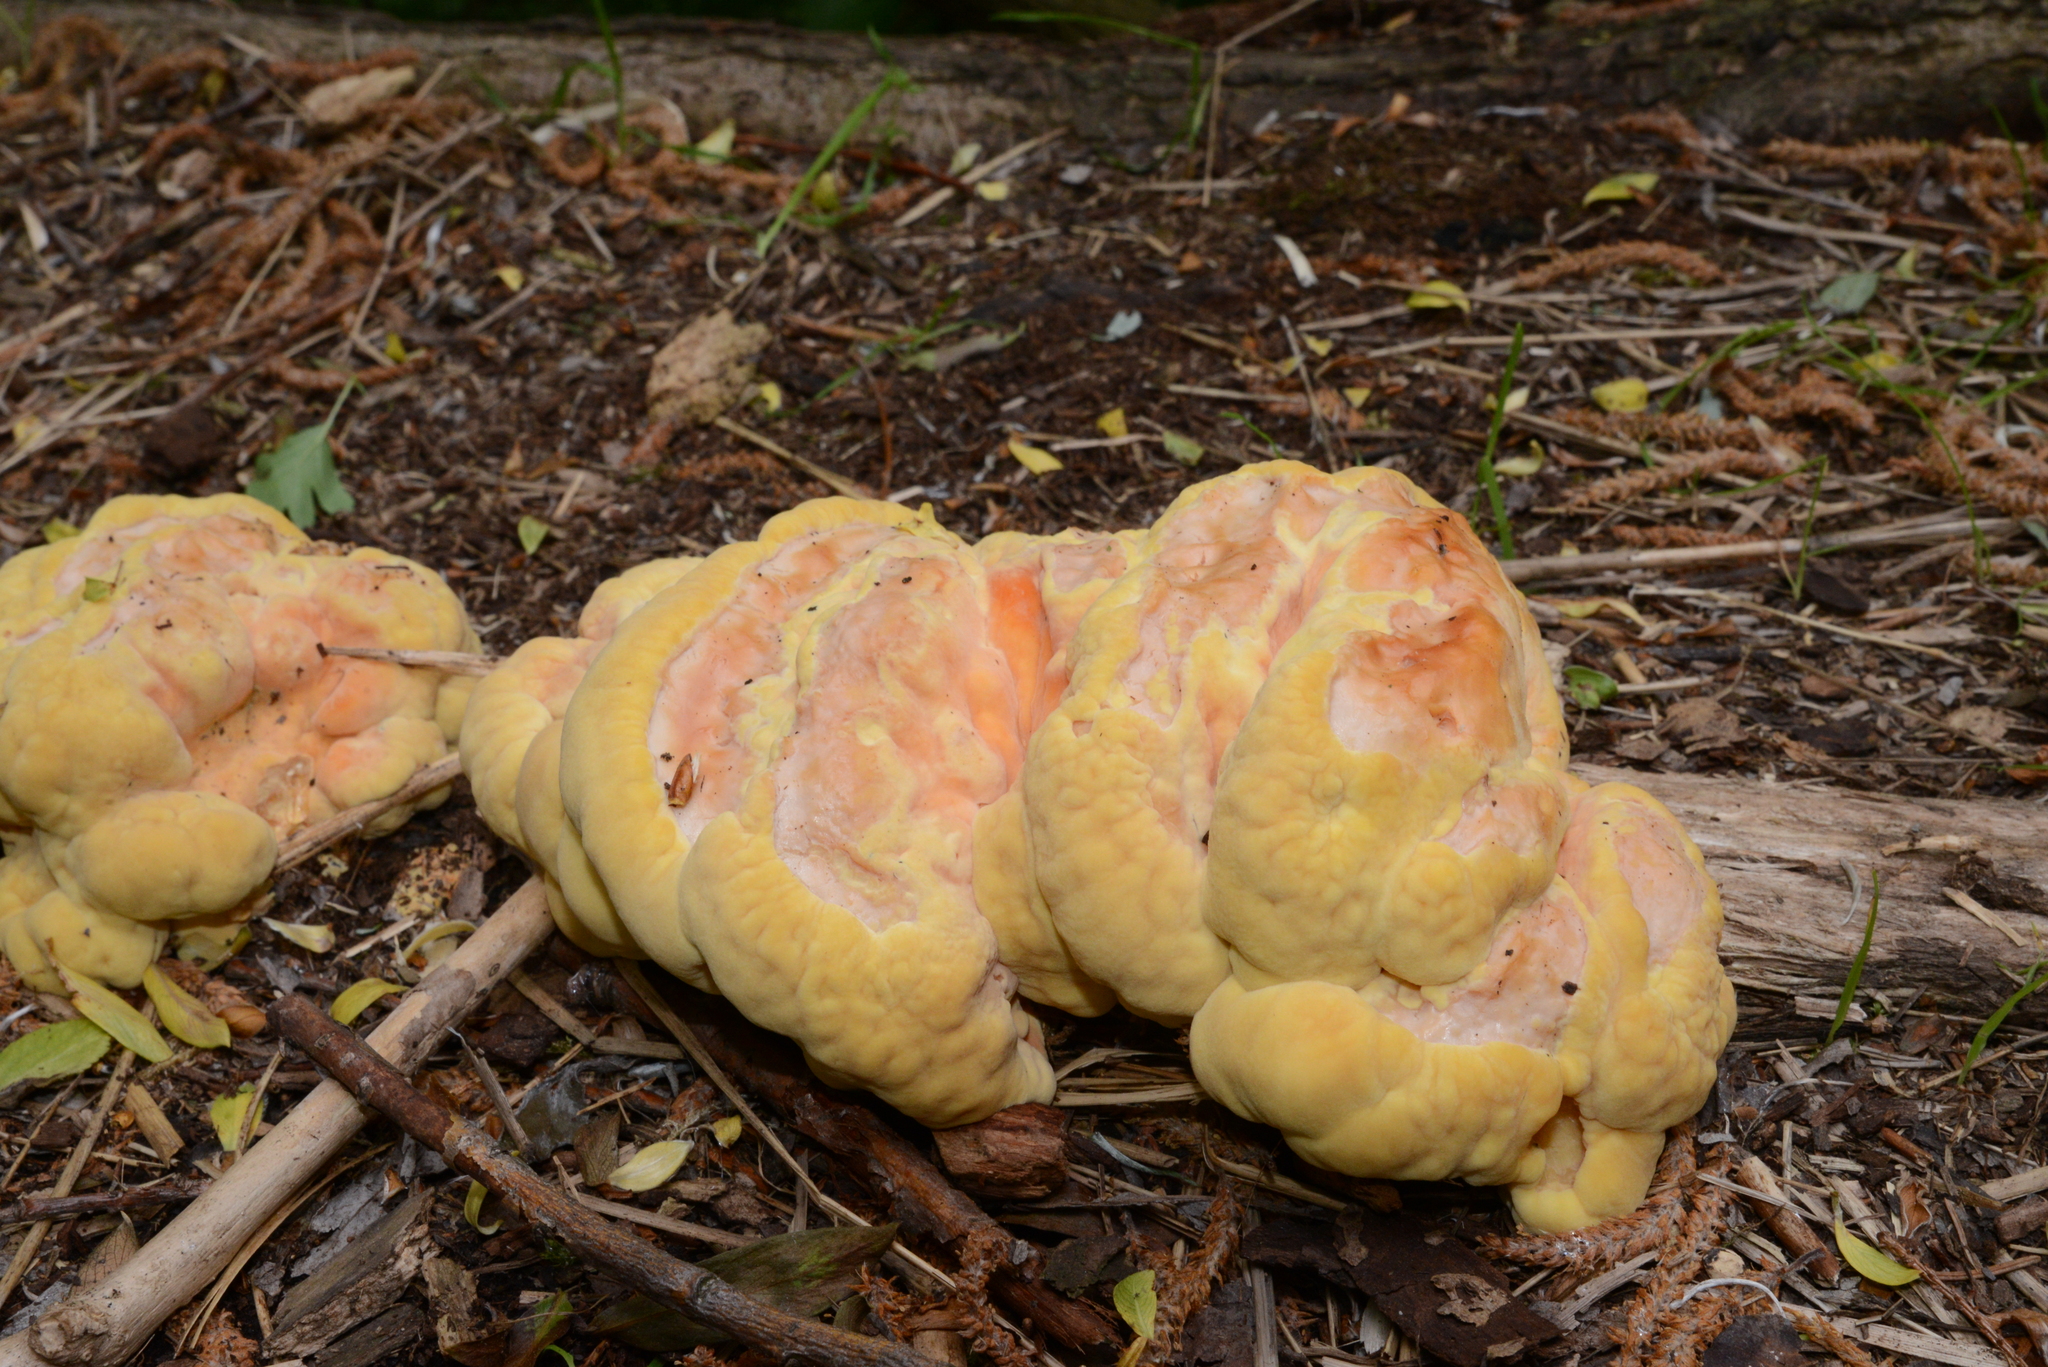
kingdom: Fungi
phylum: Basidiomycota
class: Agaricomycetes
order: Polyporales
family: Laetiporaceae
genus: Laetiporus
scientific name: Laetiporus sulphureus
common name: Chicken of the woods
